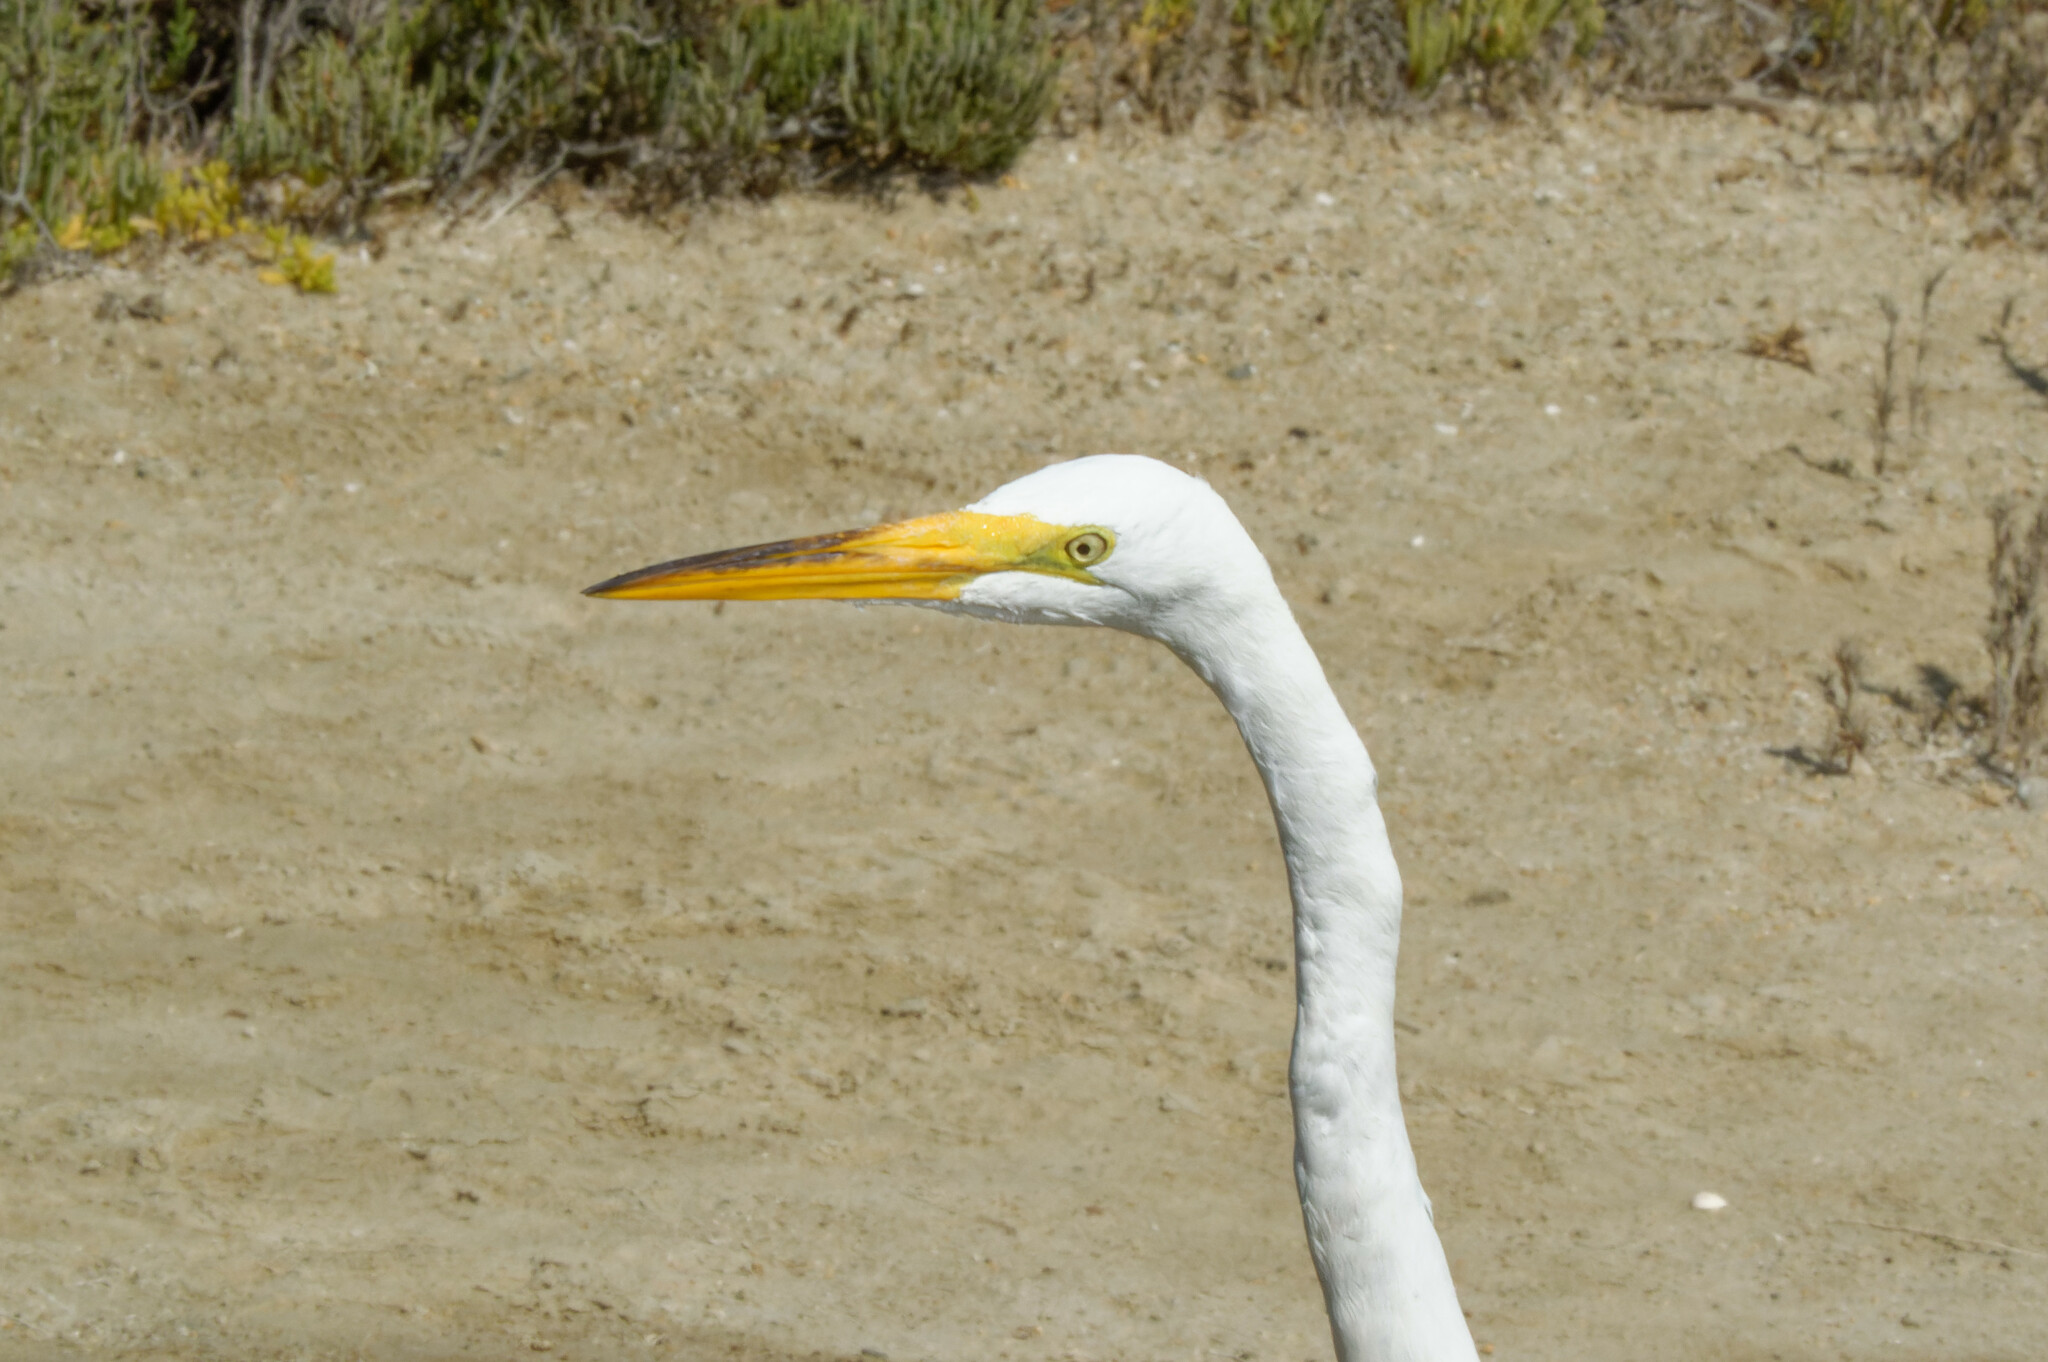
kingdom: Animalia
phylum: Chordata
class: Aves
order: Pelecaniformes
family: Ardeidae
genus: Ardea
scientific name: Ardea alba
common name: Great egret
